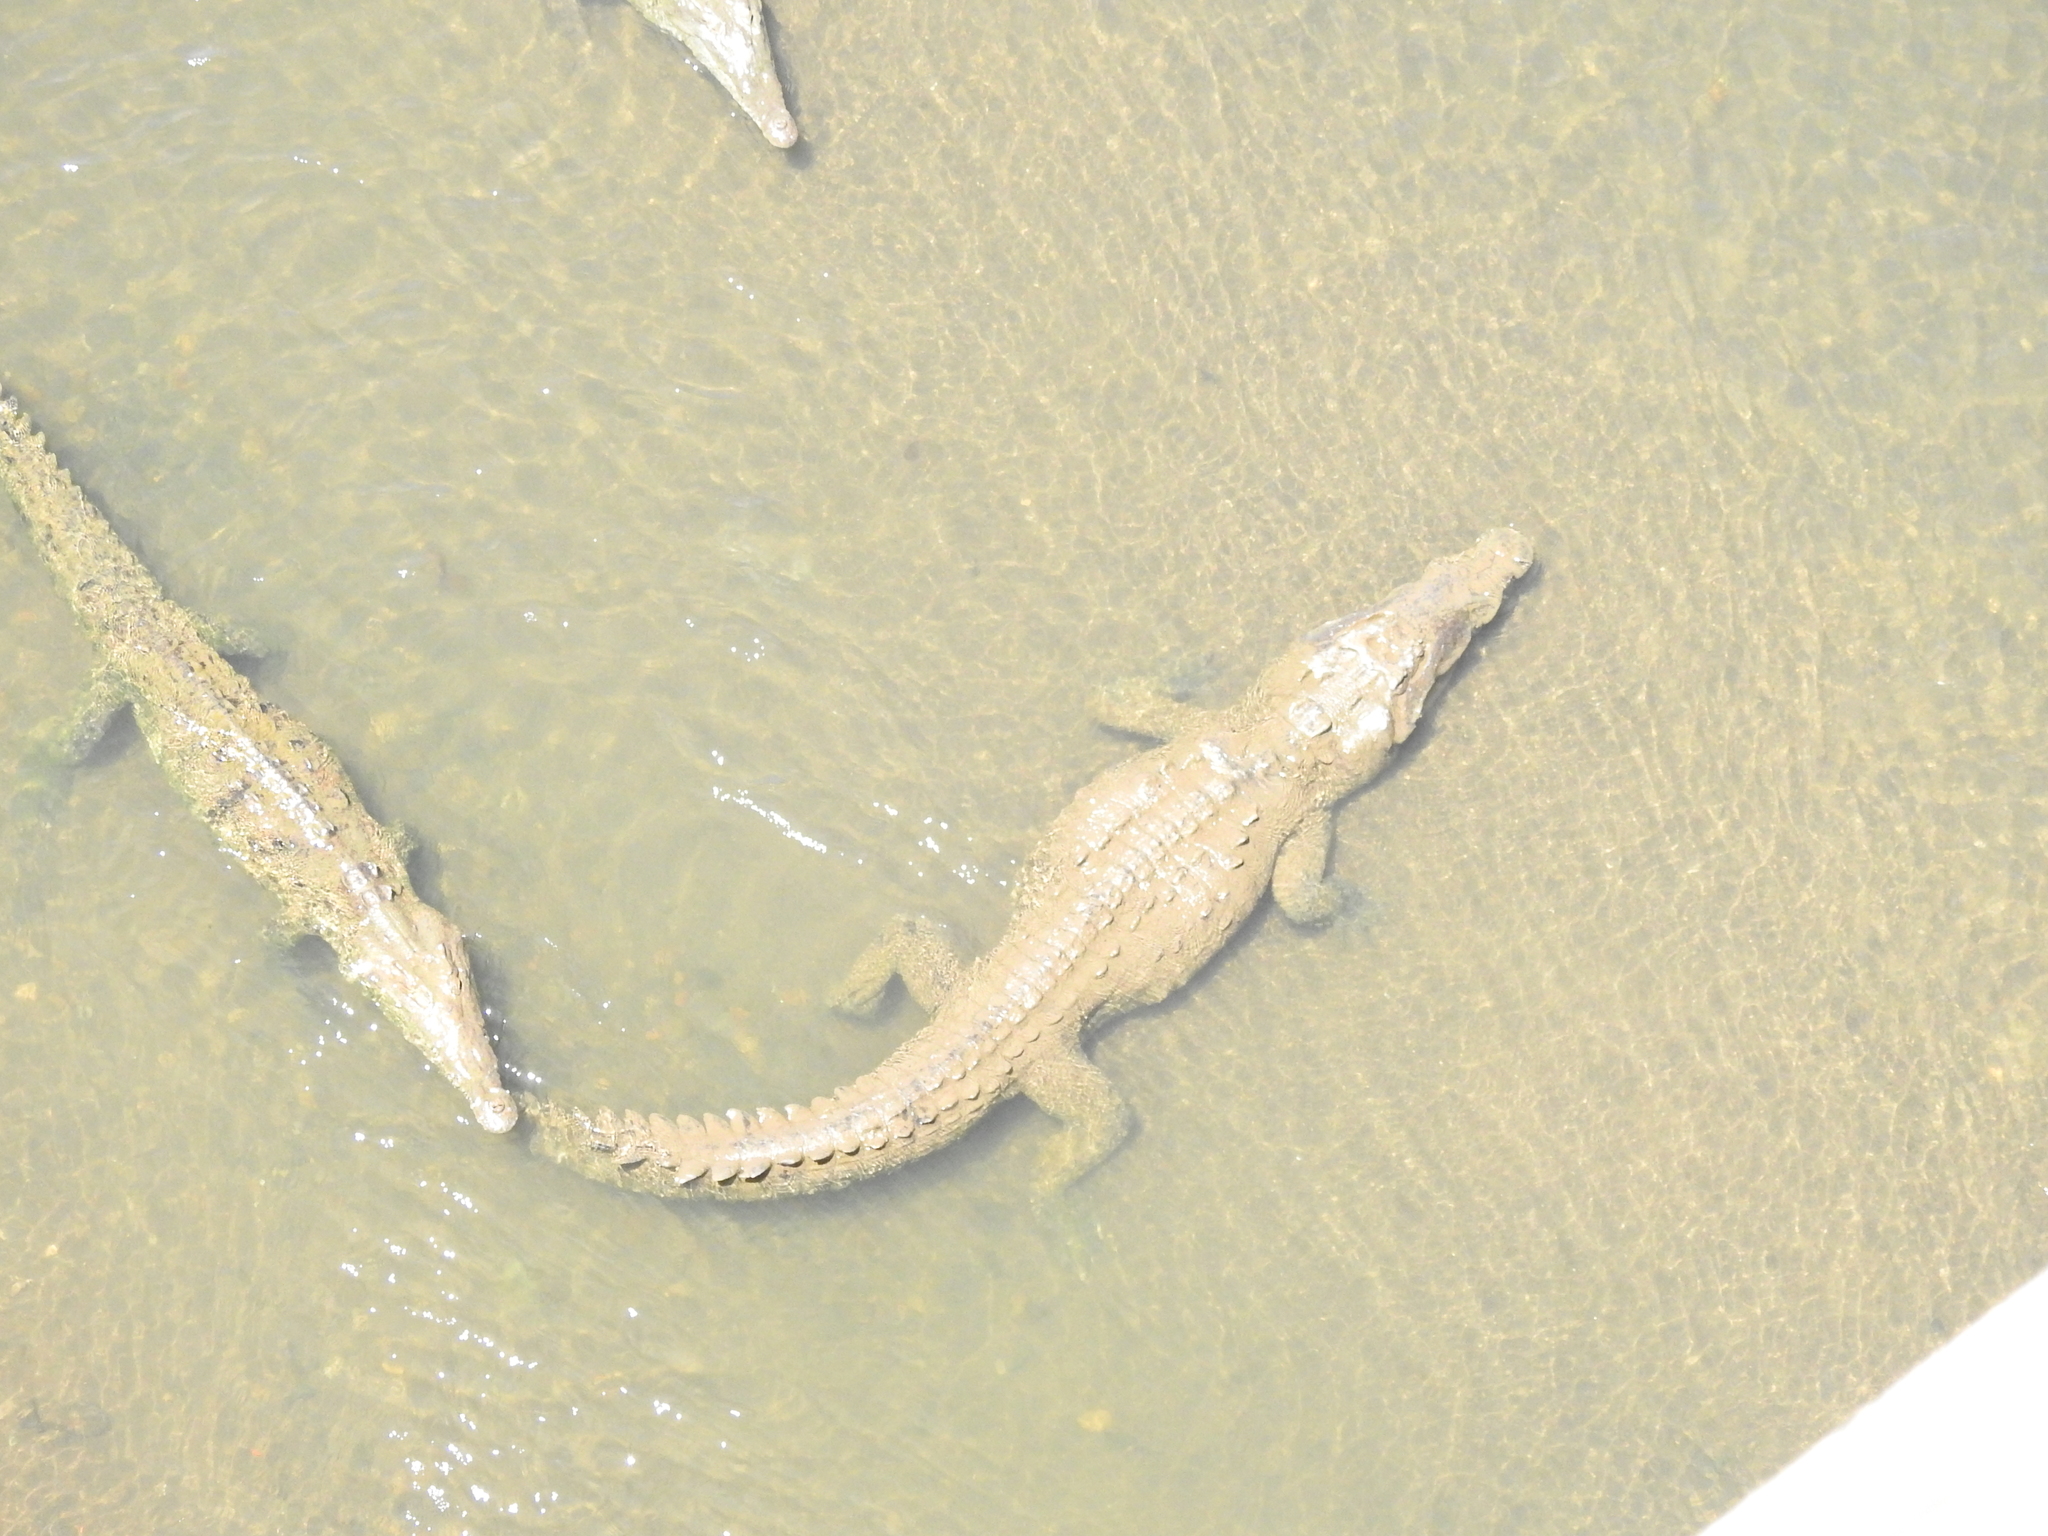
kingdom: Animalia
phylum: Chordata
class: Crocodylia
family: Crocodylidae
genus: Crocodylus
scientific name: Crocodylus acutus
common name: American crocodile
